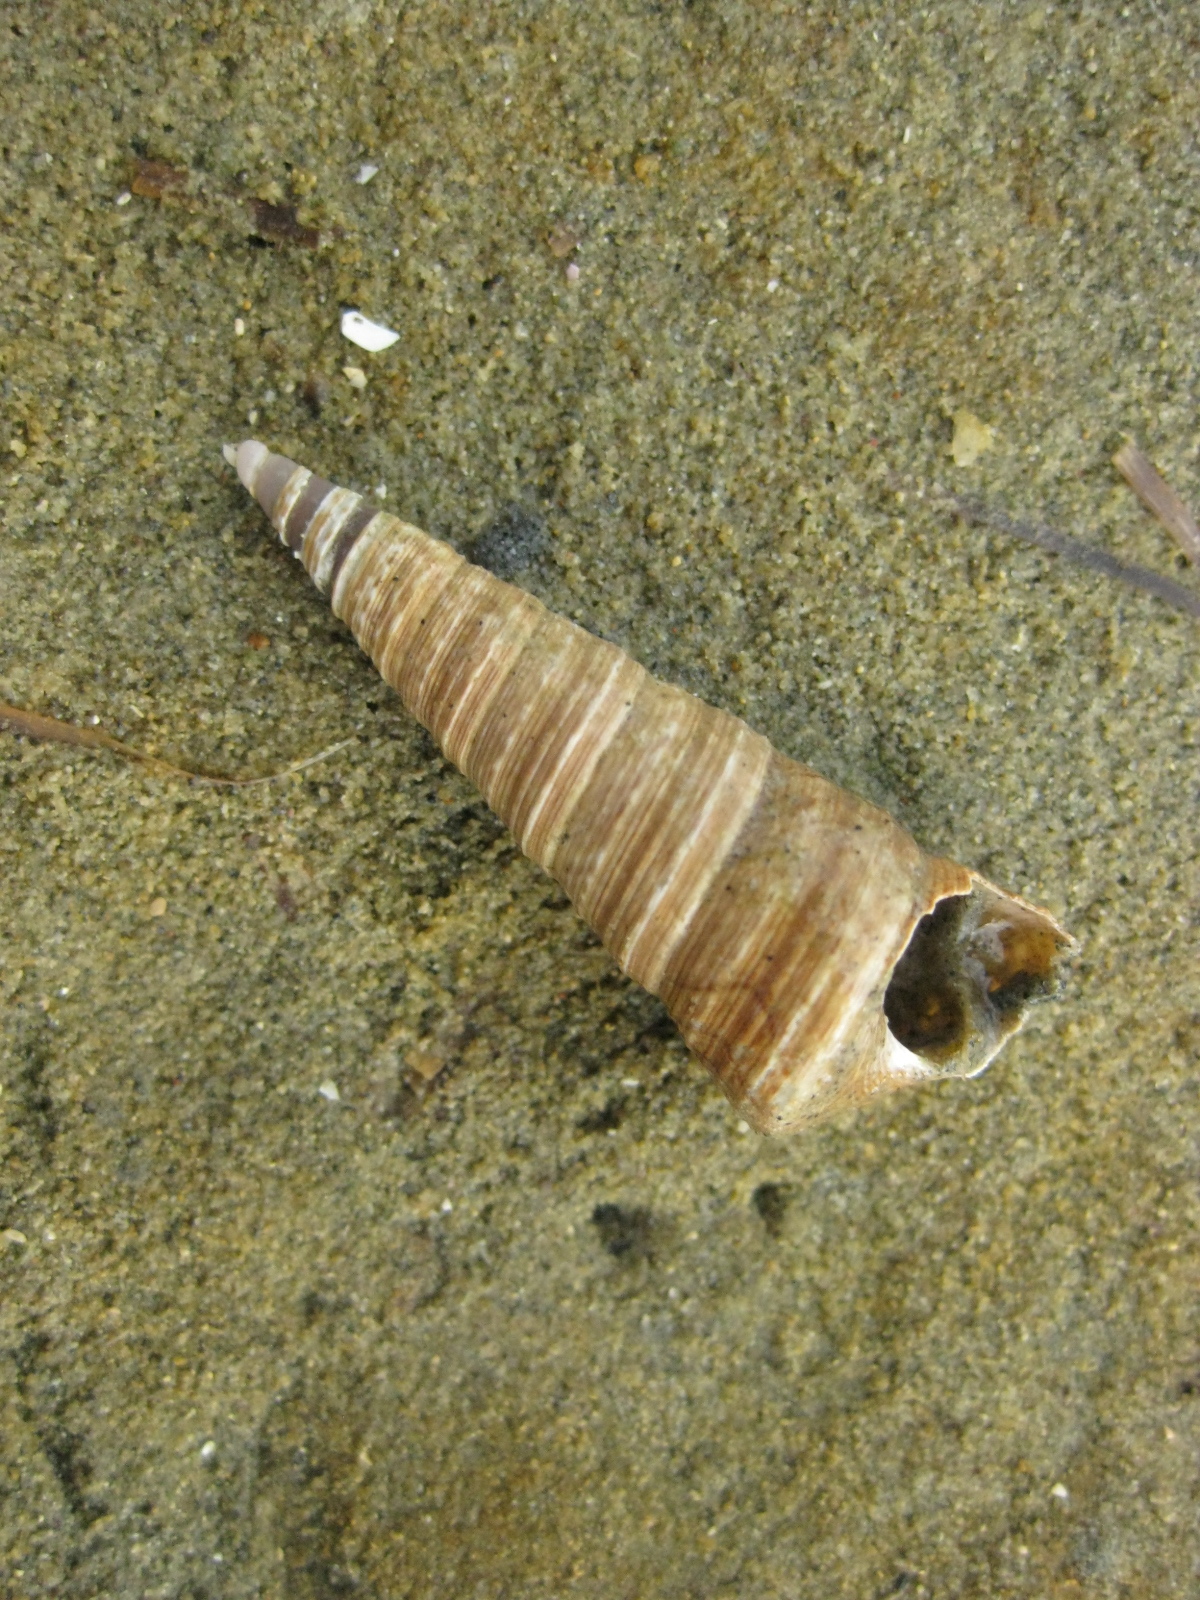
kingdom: Animalia
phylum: Mollusca
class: Gastropoda
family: Turritellidae
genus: Maoricolpus
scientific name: Maoricolpus roseus
